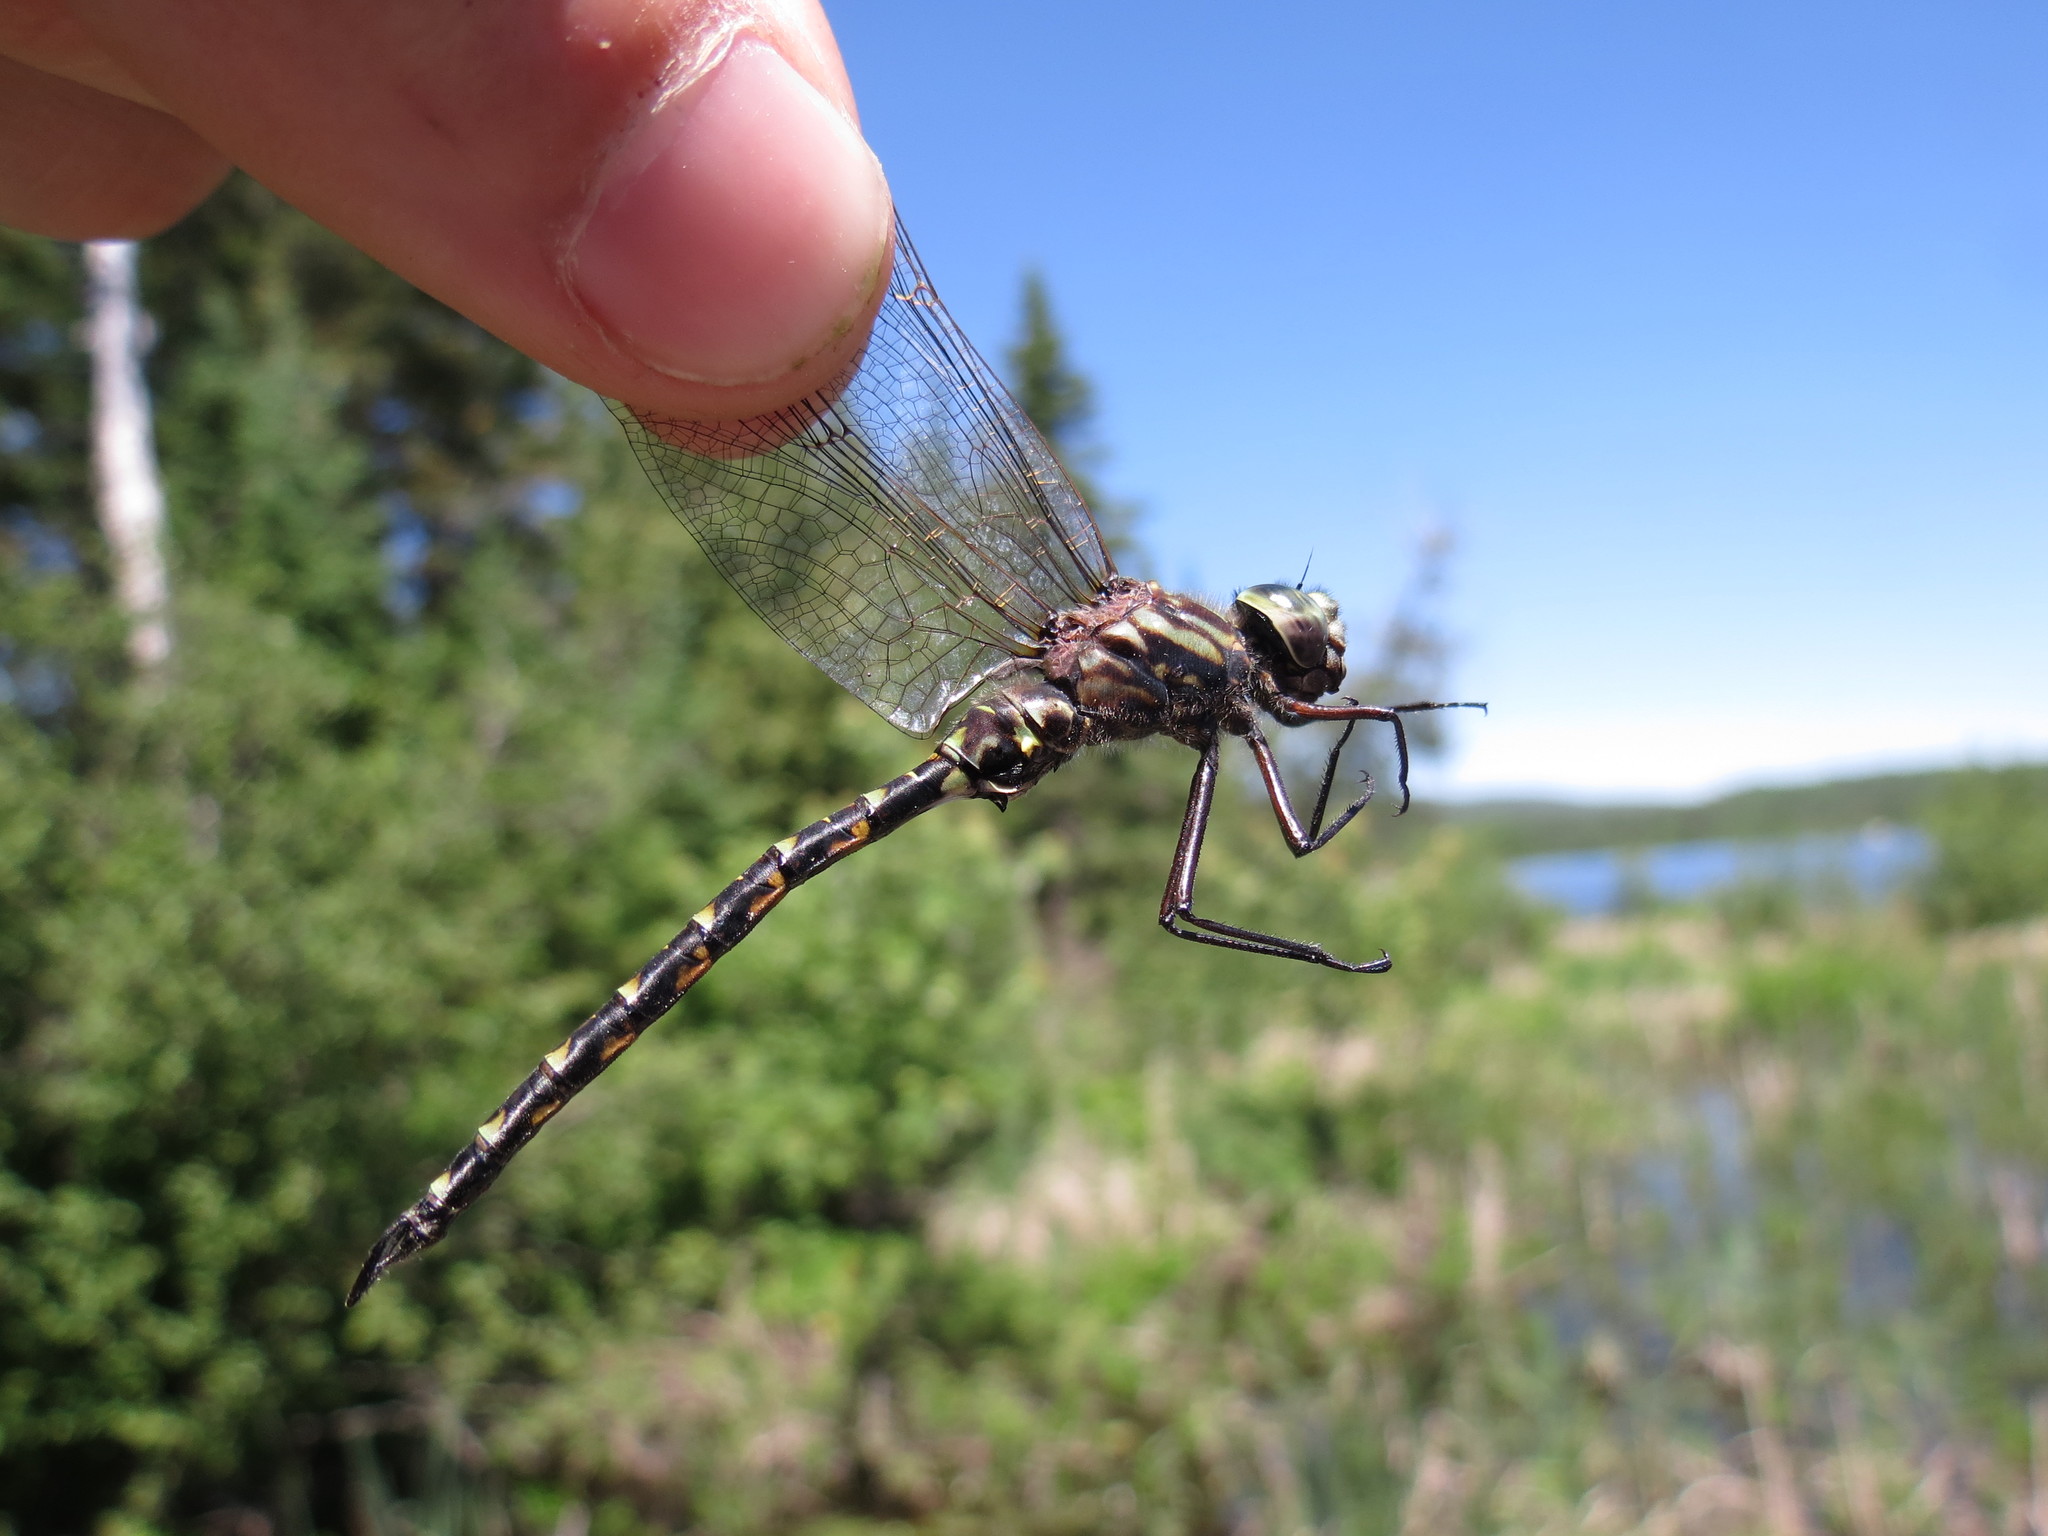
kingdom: Animalia
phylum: Arthropoda
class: Insecta
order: Odonata
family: Aeshnidae
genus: Gomphaeschna
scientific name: Gomphaeschna furcillata
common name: Harlequin darner
